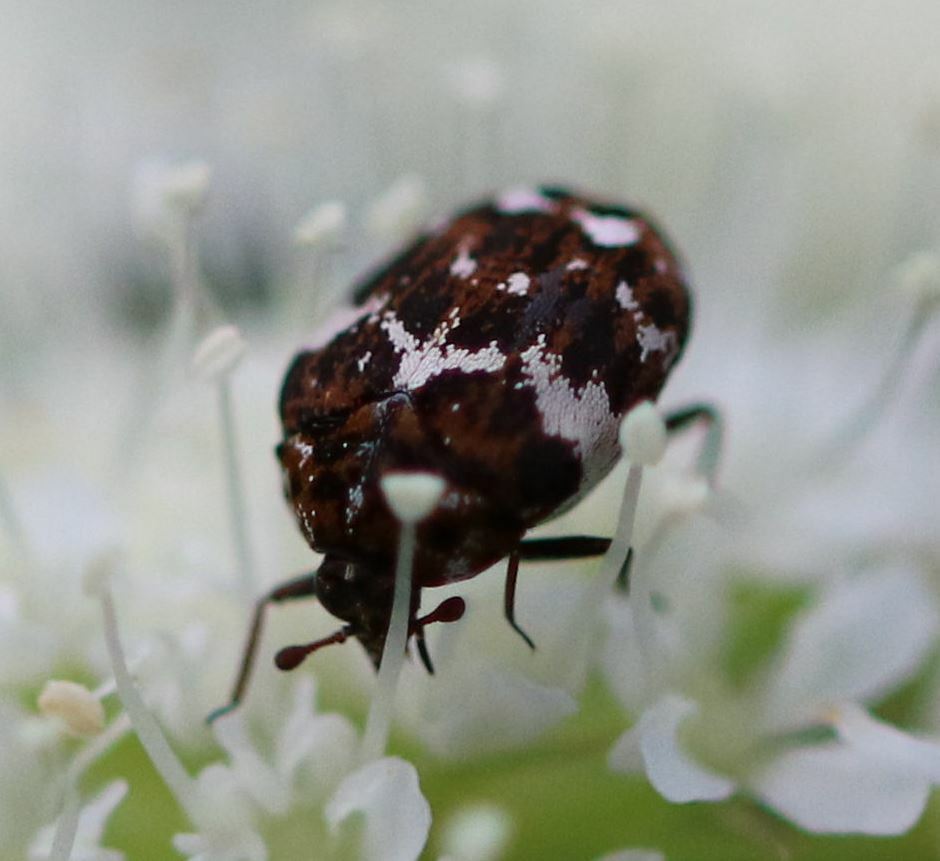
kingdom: Animalia
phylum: Arthropoda
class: Insecta
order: Coleoptera
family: Dermestidae
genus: Anthrenus
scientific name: Anthrenus angustefasciatus
